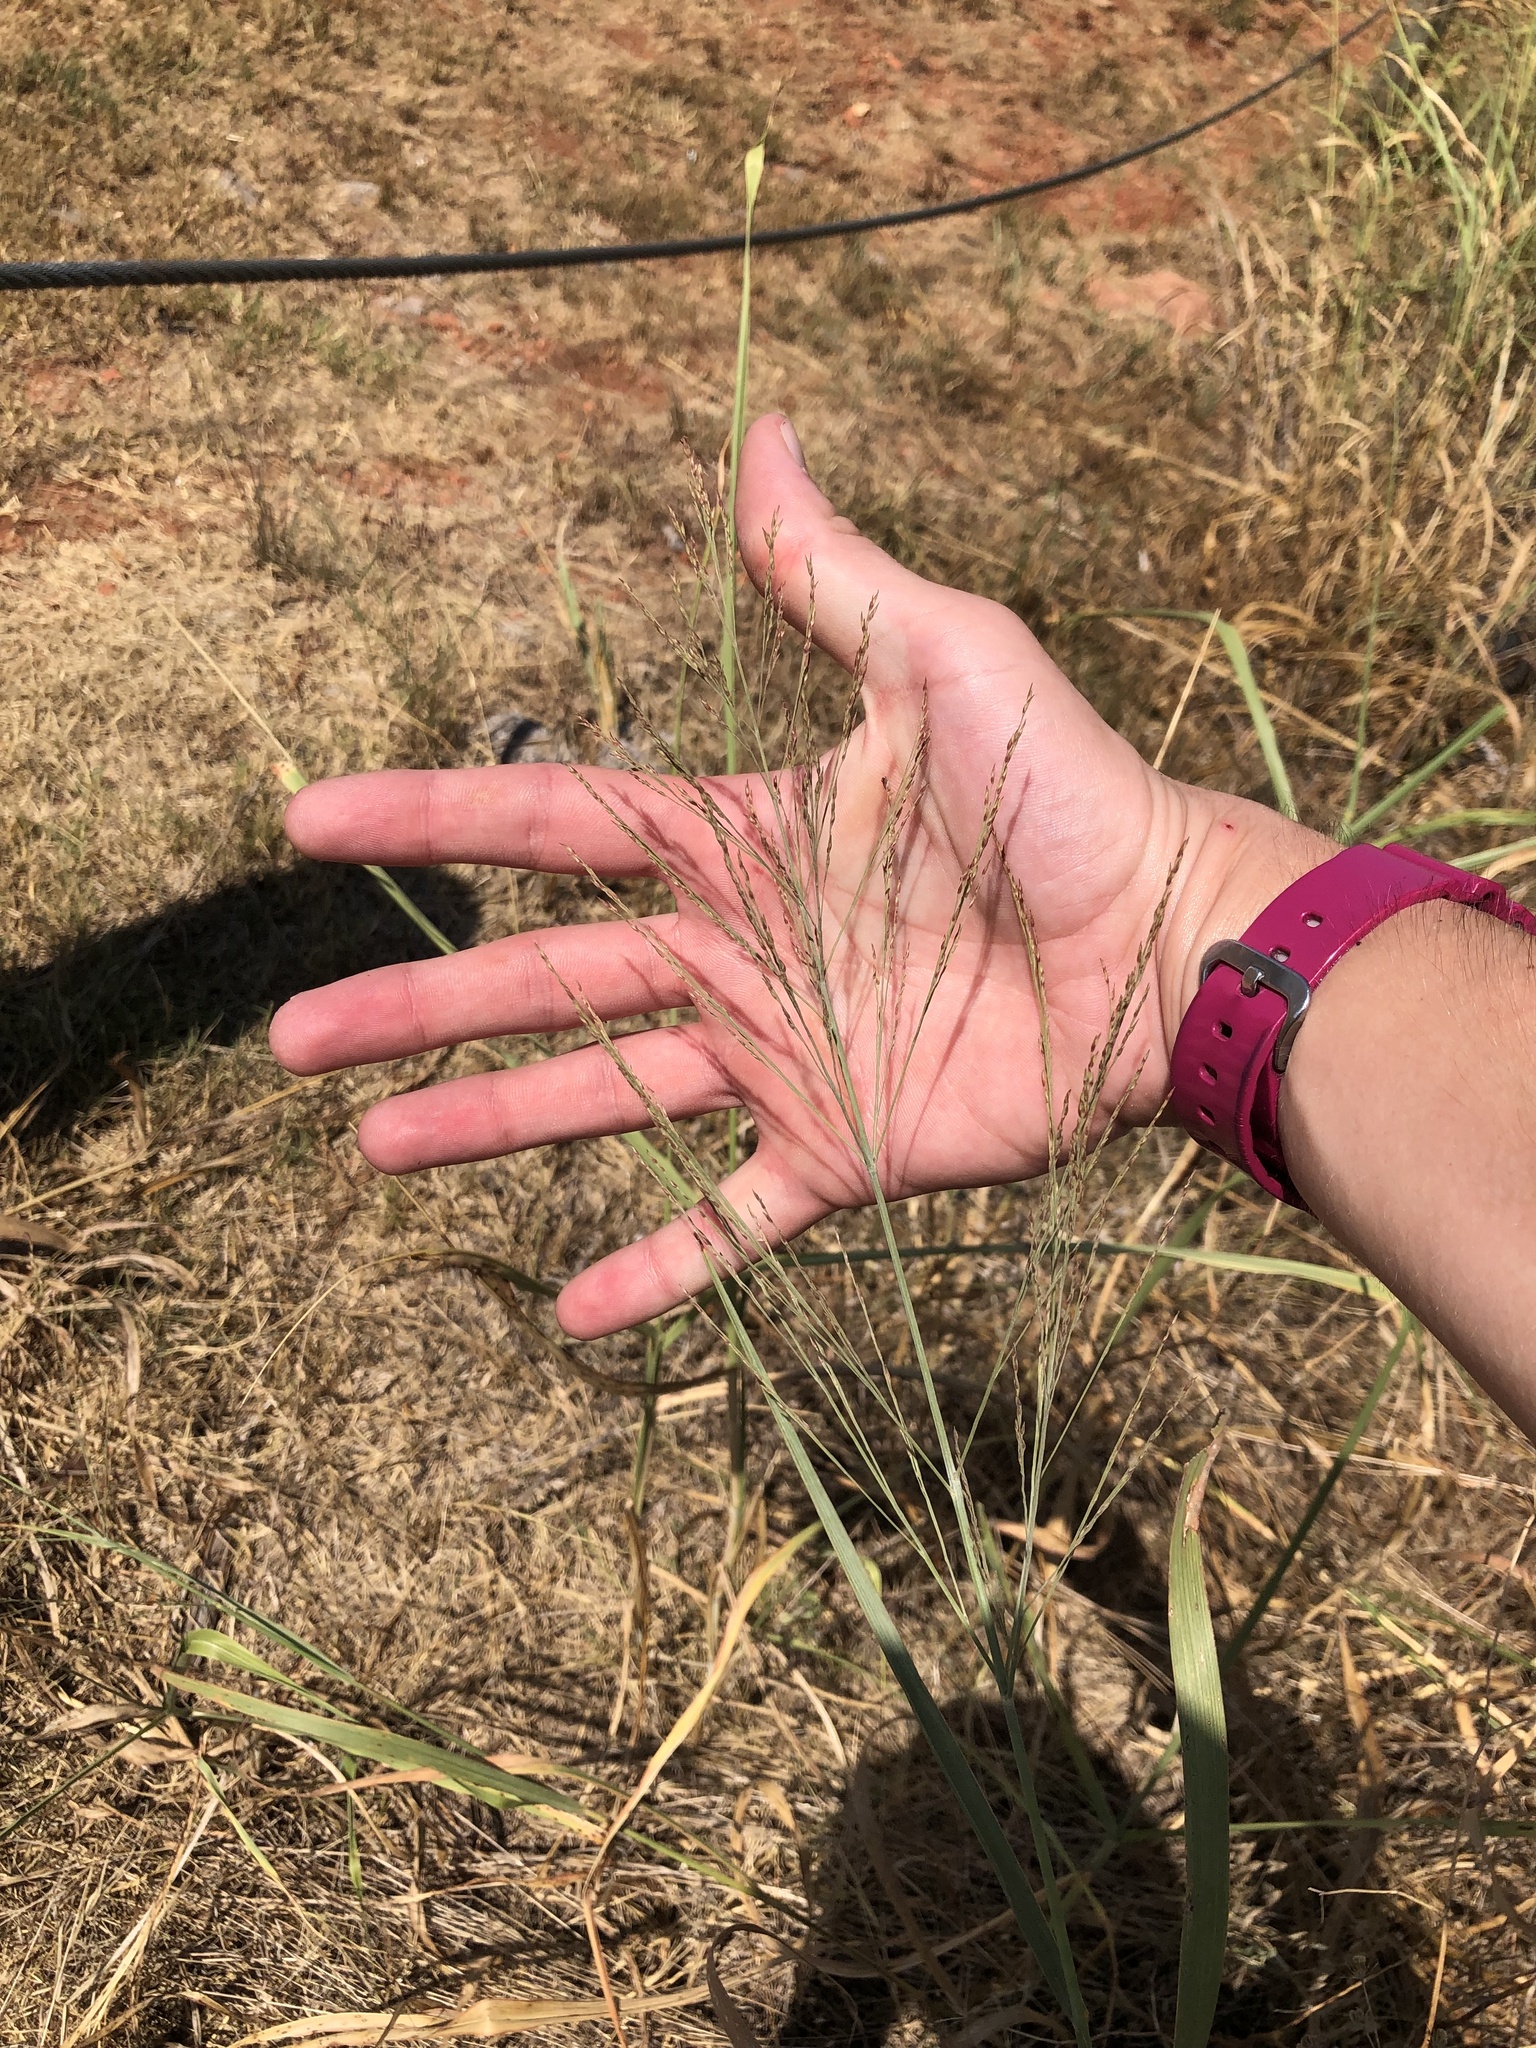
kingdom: Plantae
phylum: Tracheophyta
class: Liliopsida
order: Poales
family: Poaceae
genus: Panicum
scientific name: Panicum virgatum
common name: Switchgrass
